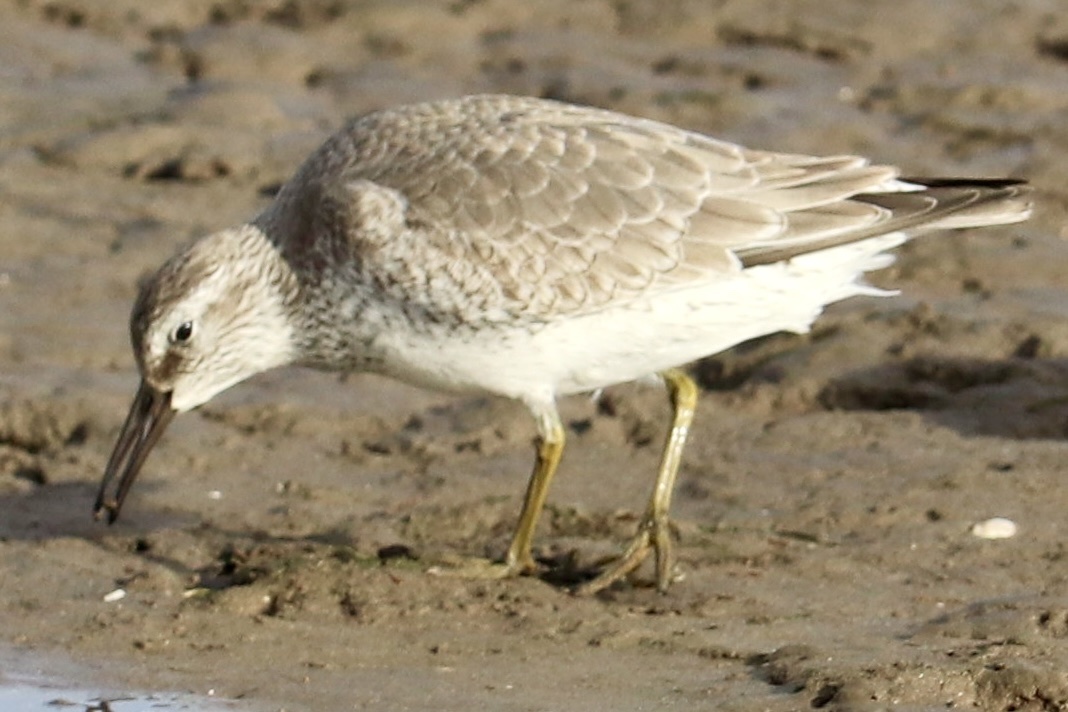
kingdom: Animalia
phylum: Chordata
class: Aves
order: Charadriiformes
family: Scolopacidae
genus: Calidris
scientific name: Calidris canutus
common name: Red knot
